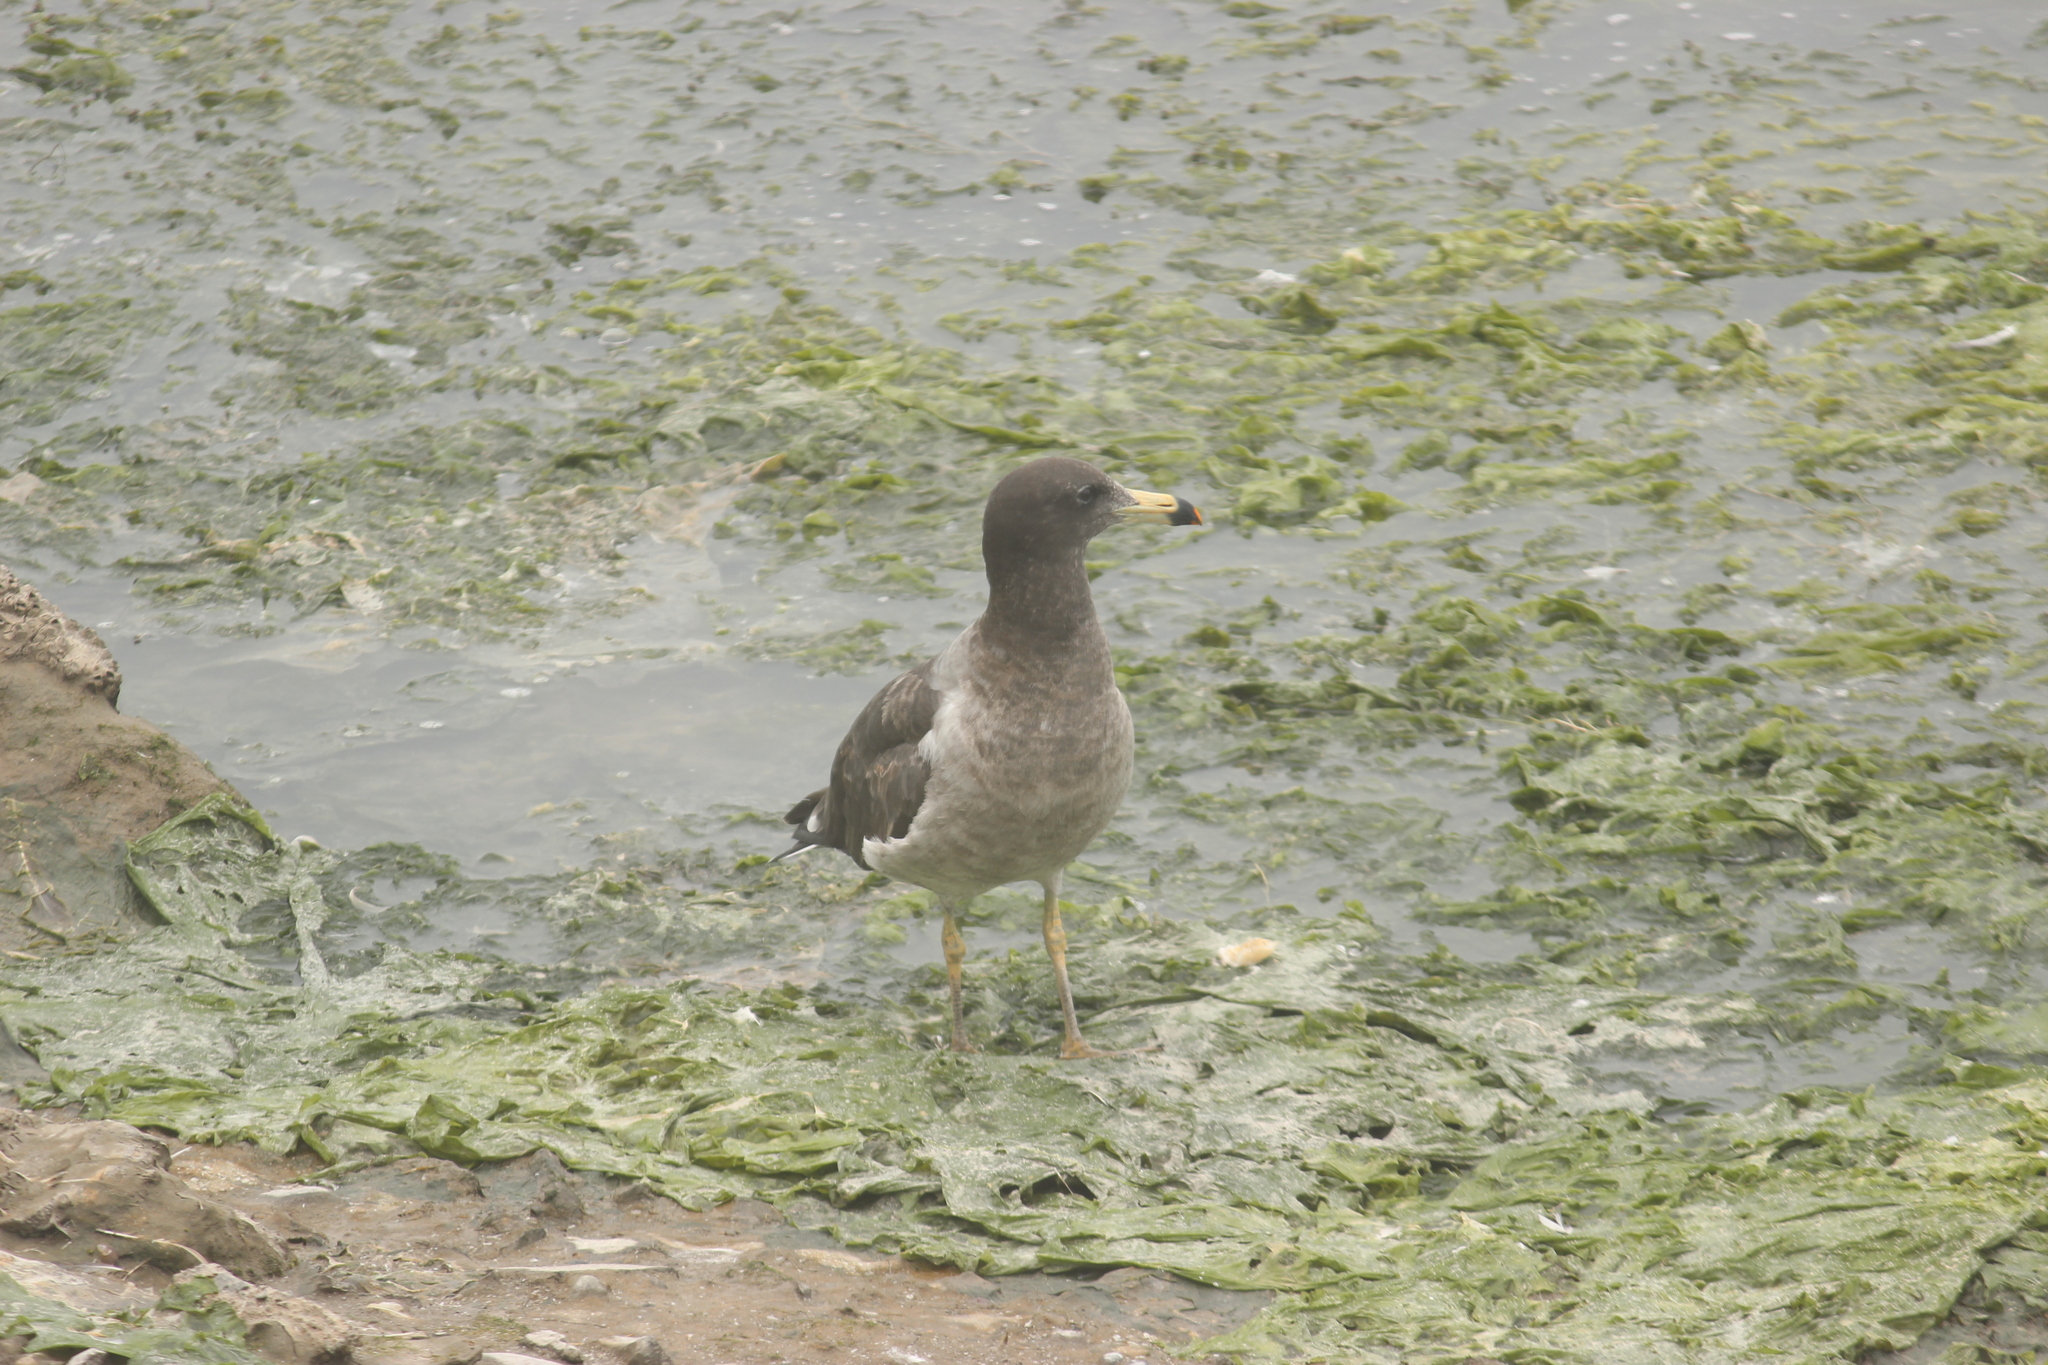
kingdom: Animalia
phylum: Chordata
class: Aves
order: Charadriiformes
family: Laridae
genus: Larus
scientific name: Larus belcheri
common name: Belcher's gull
